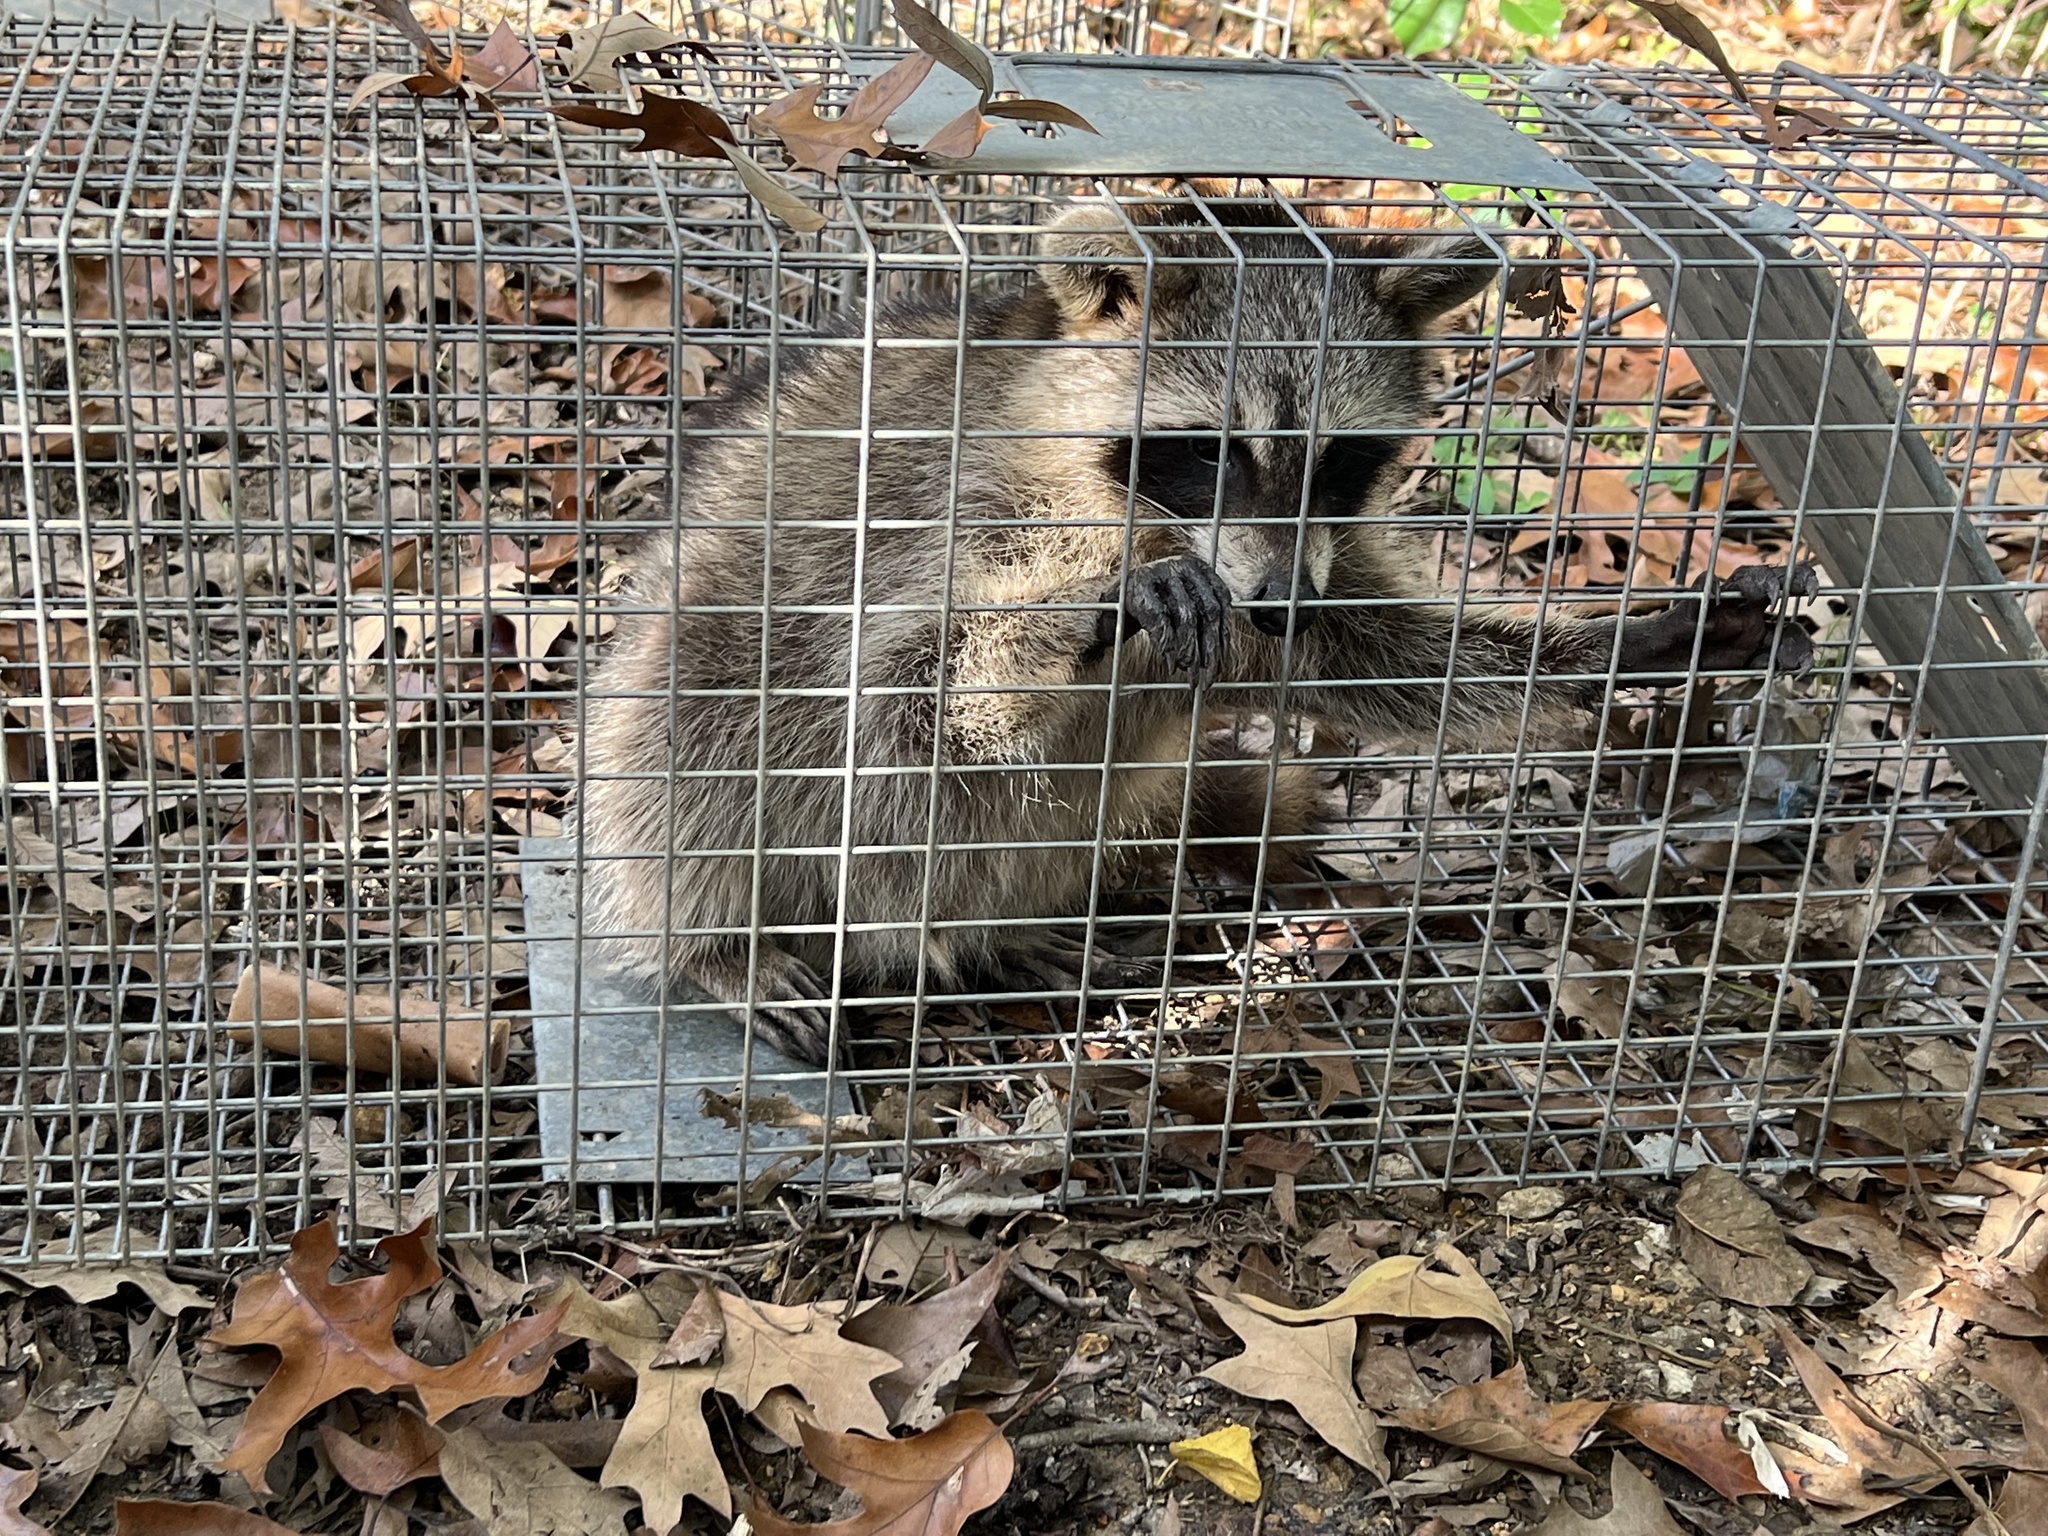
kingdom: Animalia
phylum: Chordata
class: Mammalia
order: Carnivora
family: Procyonidae
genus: Procyon
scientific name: Procyon lotor
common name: Raccoon
